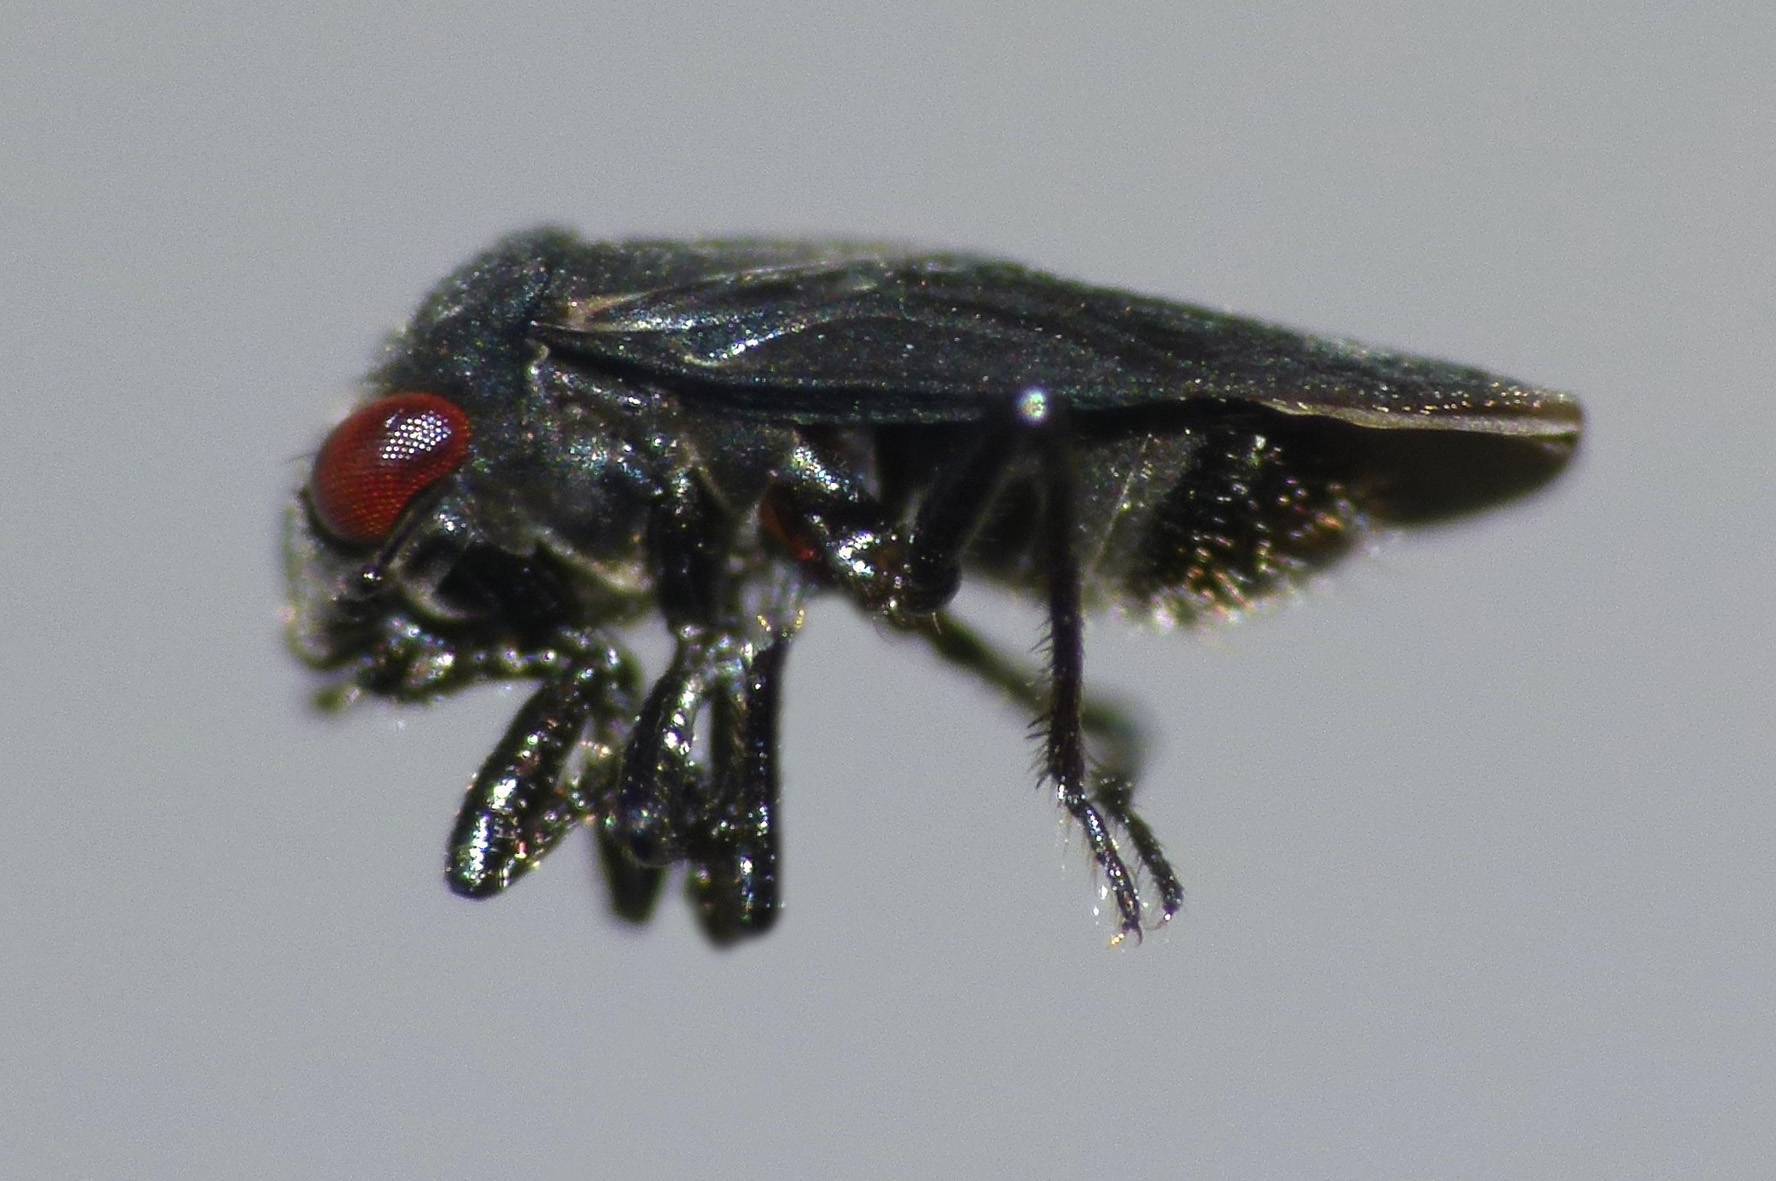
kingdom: Animalia
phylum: Arthropoda
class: Insecta
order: Hemiptera
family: Schizopteridae
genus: Hypselosoma
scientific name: Hypselosoma acantheen
